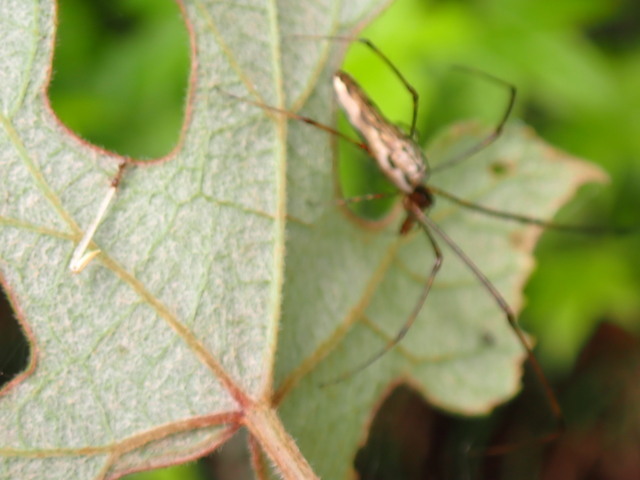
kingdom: Plantae
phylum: Tracheophyta
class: Magnoliopsida
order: Vitales
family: Vitaceae
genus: Vitis
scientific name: Vitis aestivalis
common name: Pigeon grape
